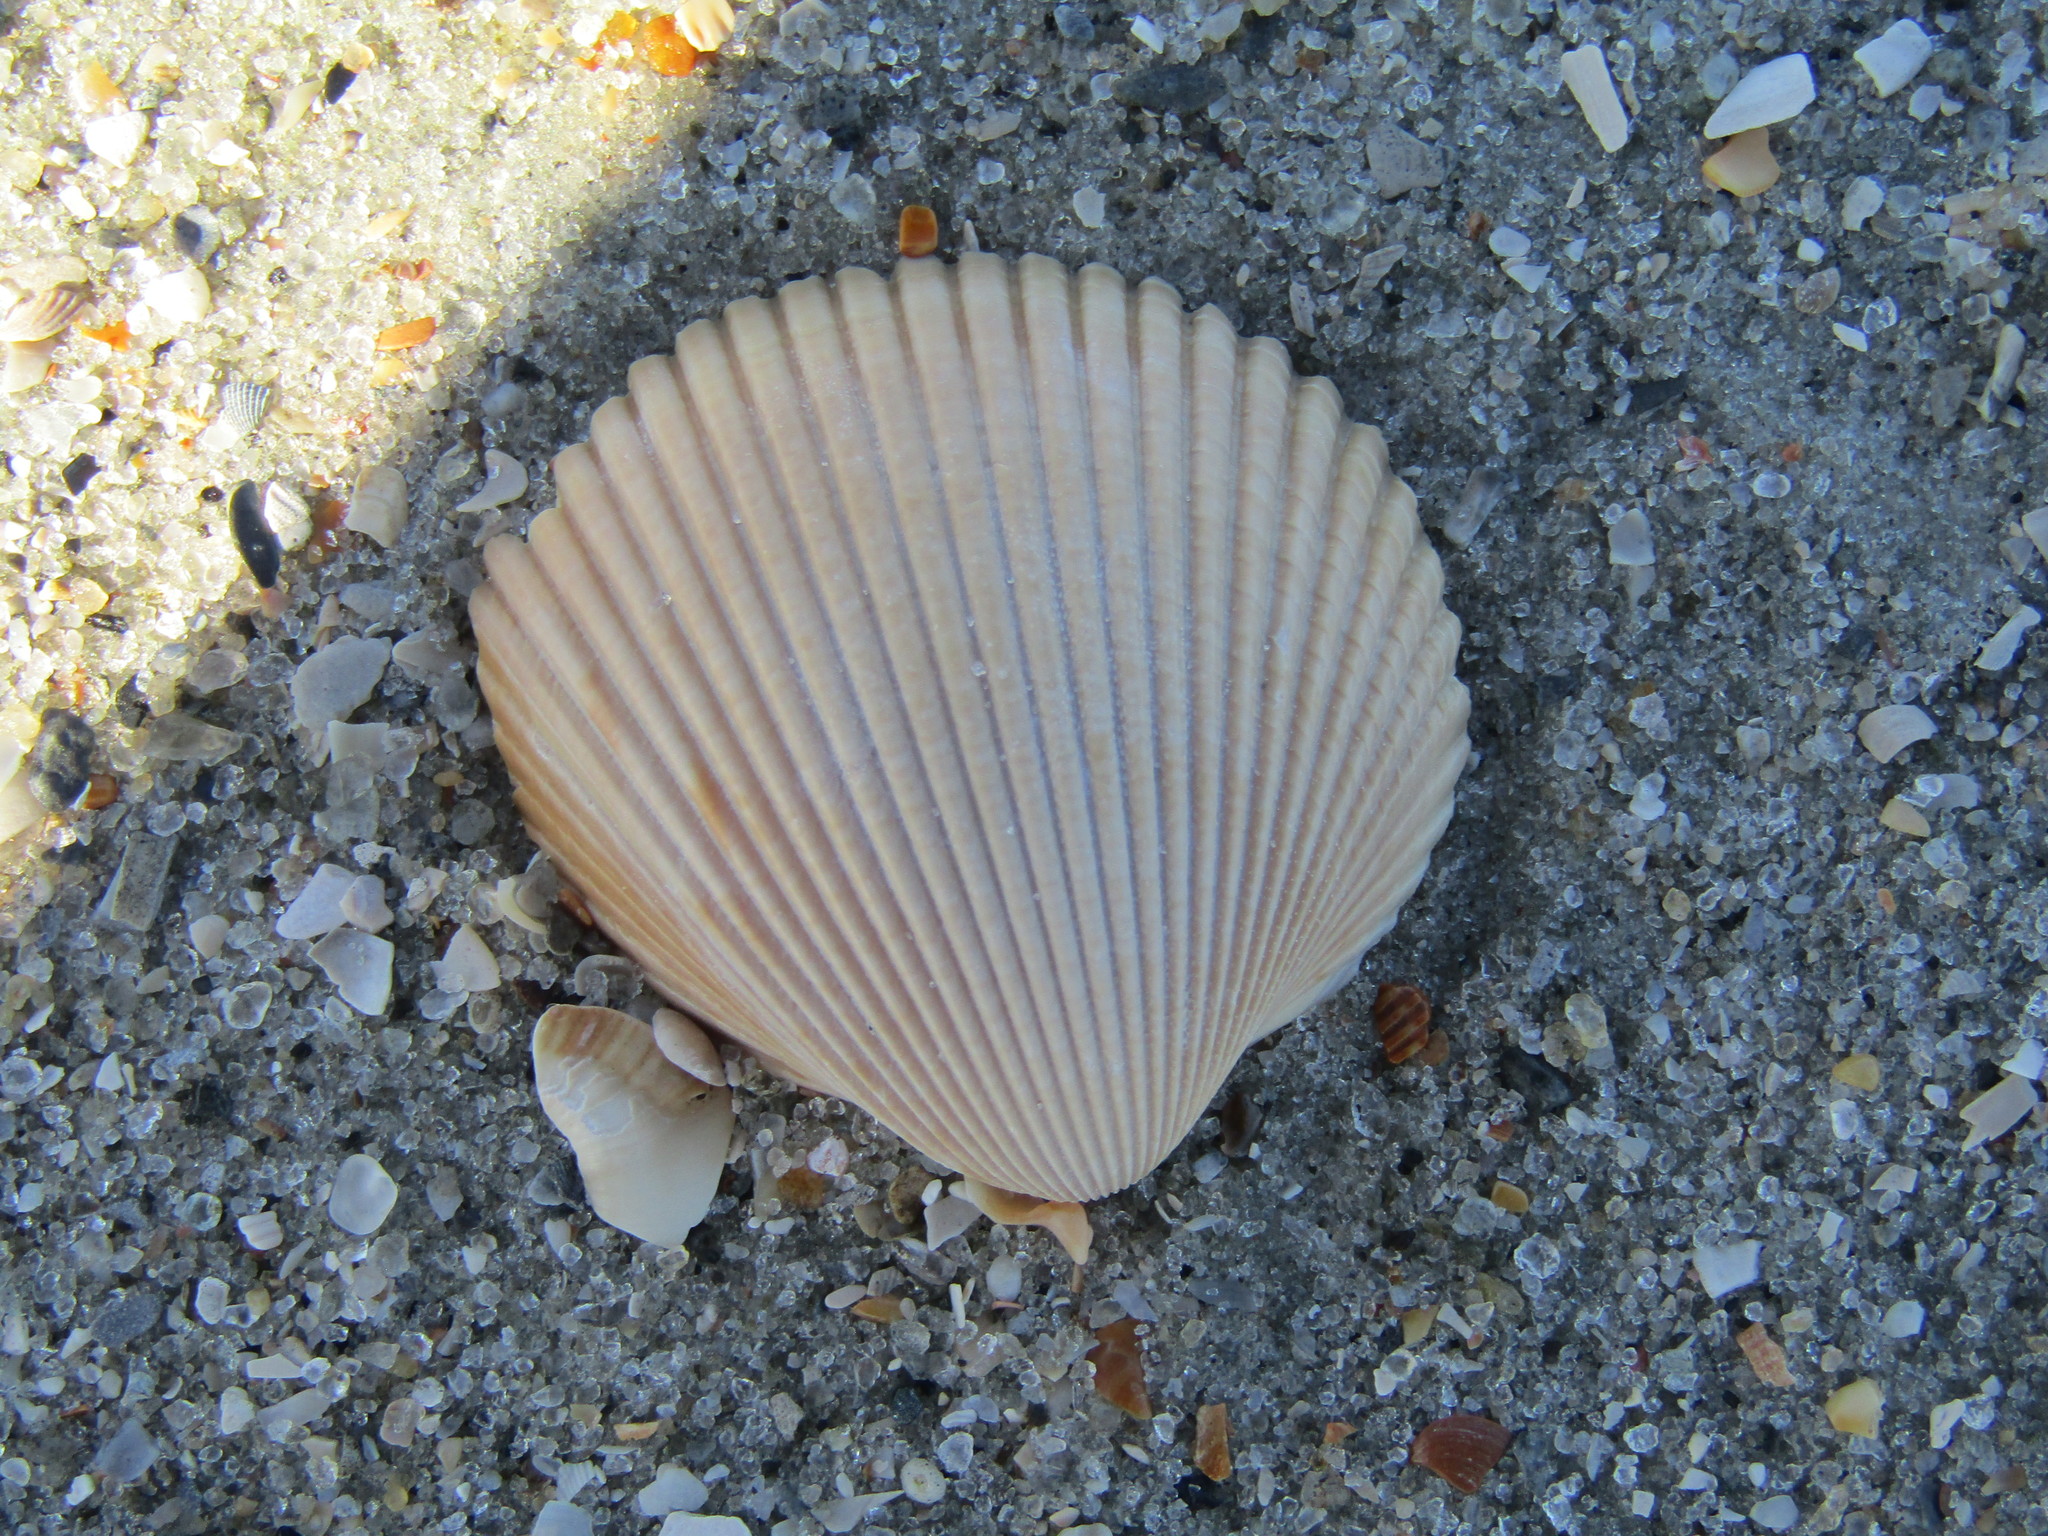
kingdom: Animalia
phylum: Mollusca
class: Bivalvia
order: Cardiida
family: Cardiidae
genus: Dinocardium
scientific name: Dinocardium robustum
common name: Atlantic giant cockle
